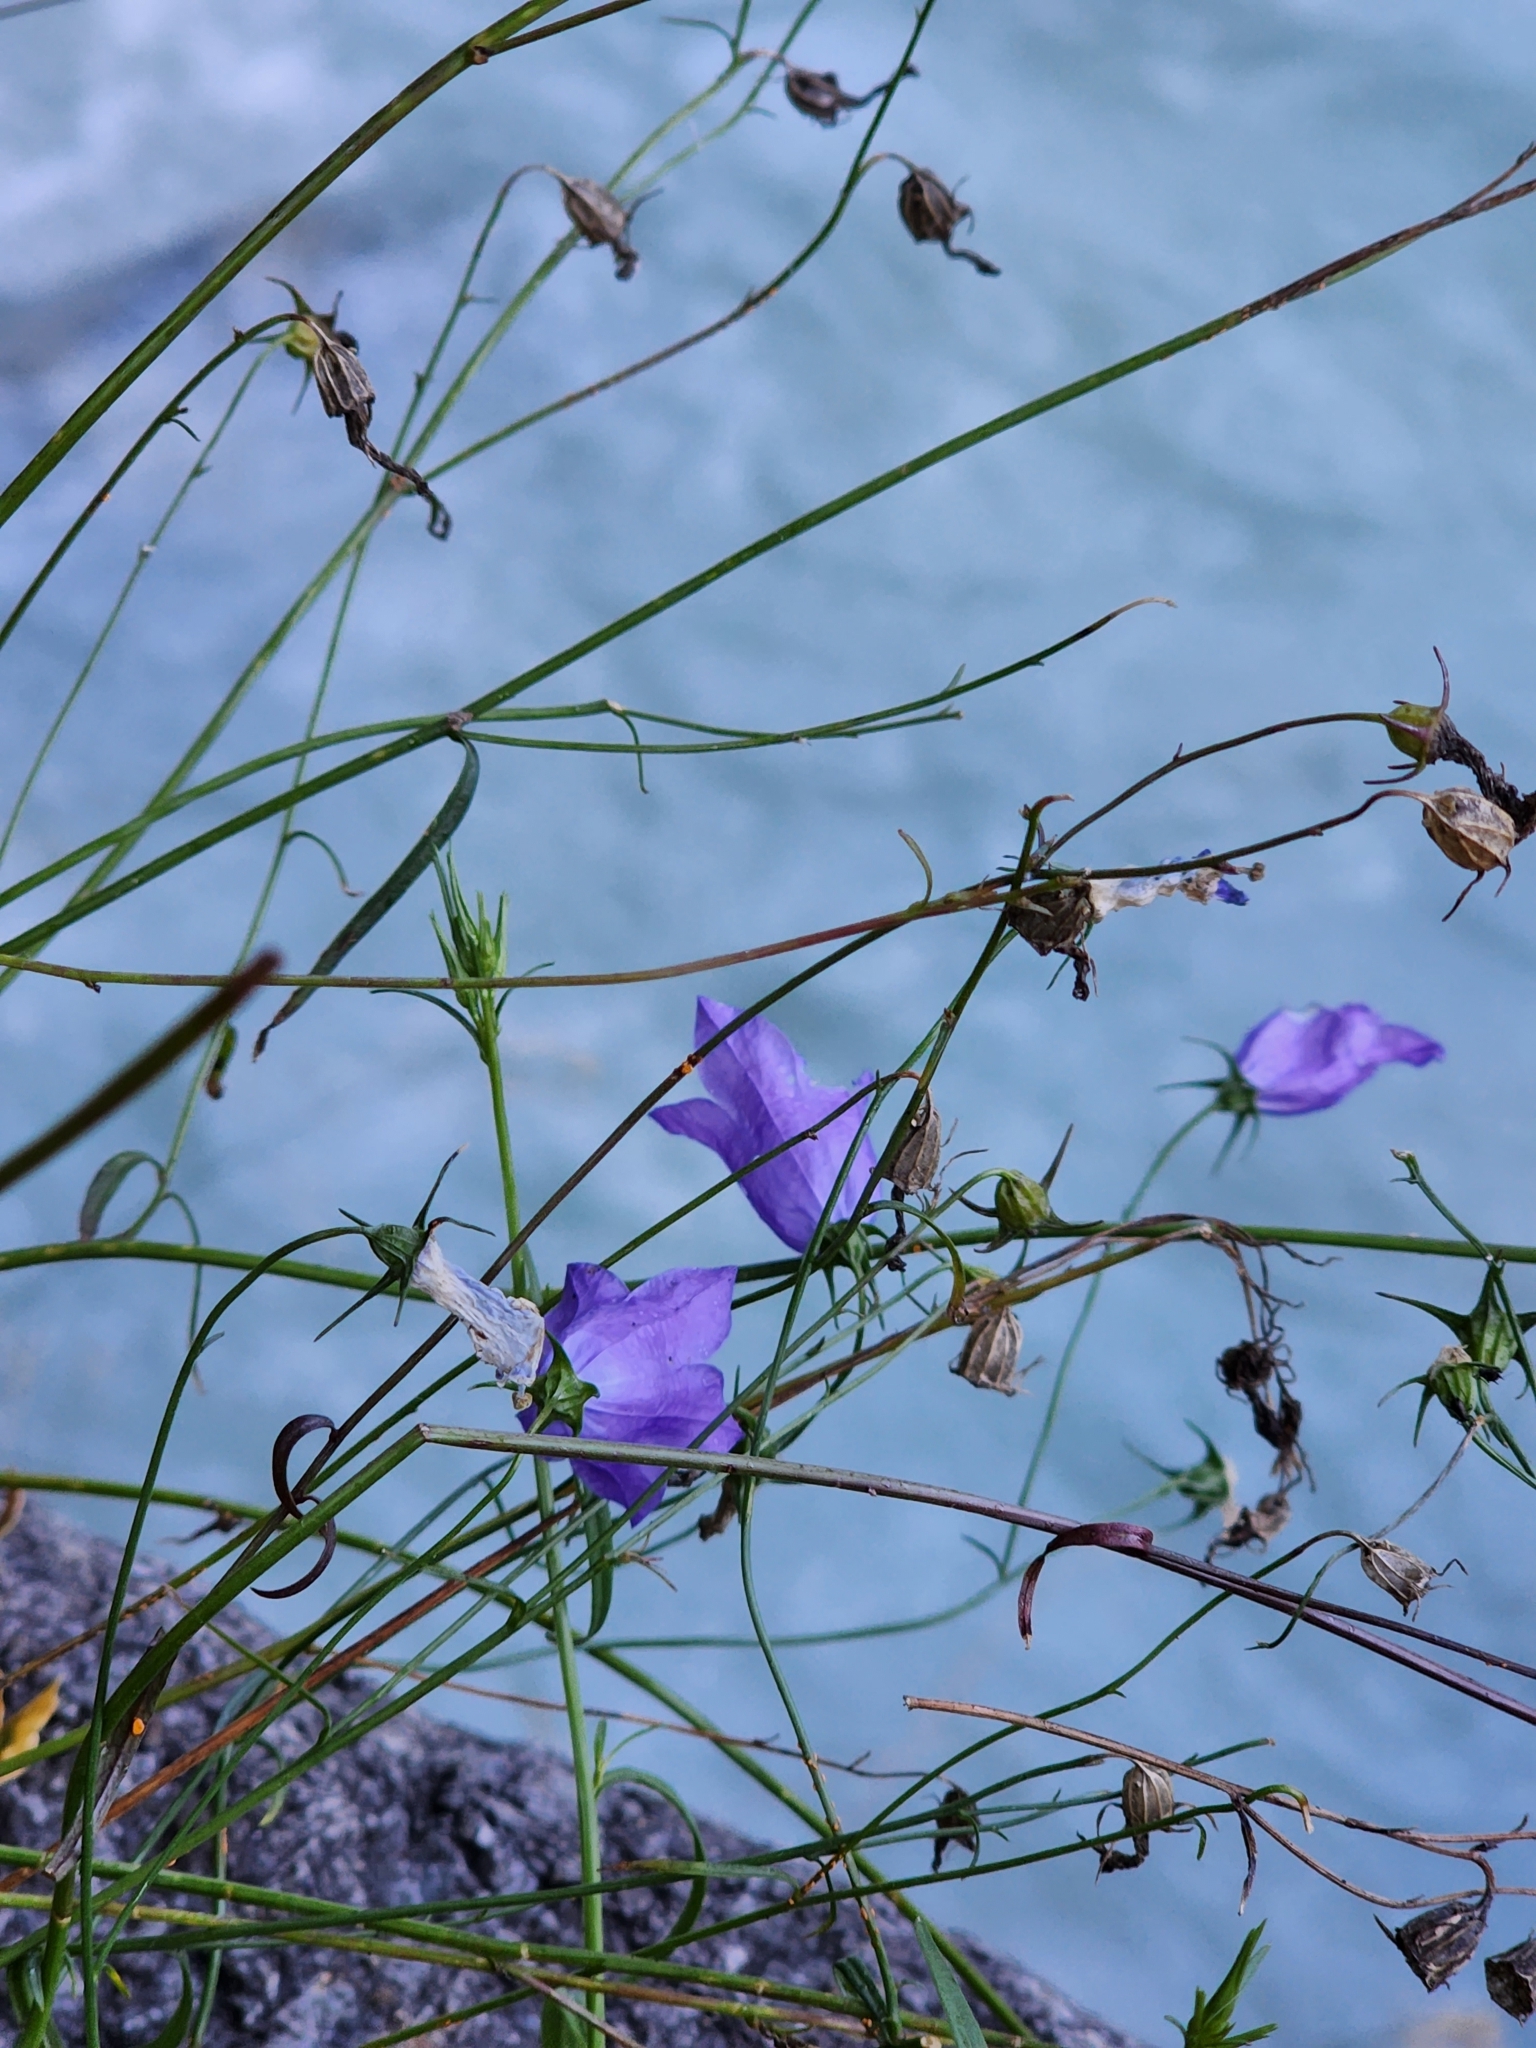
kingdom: Plantae
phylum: Tracheophyta
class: Magnoliopsida
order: Asterales
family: Campanulaceae
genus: Campanula
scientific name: Campanula rotundifolia
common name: Harebell
